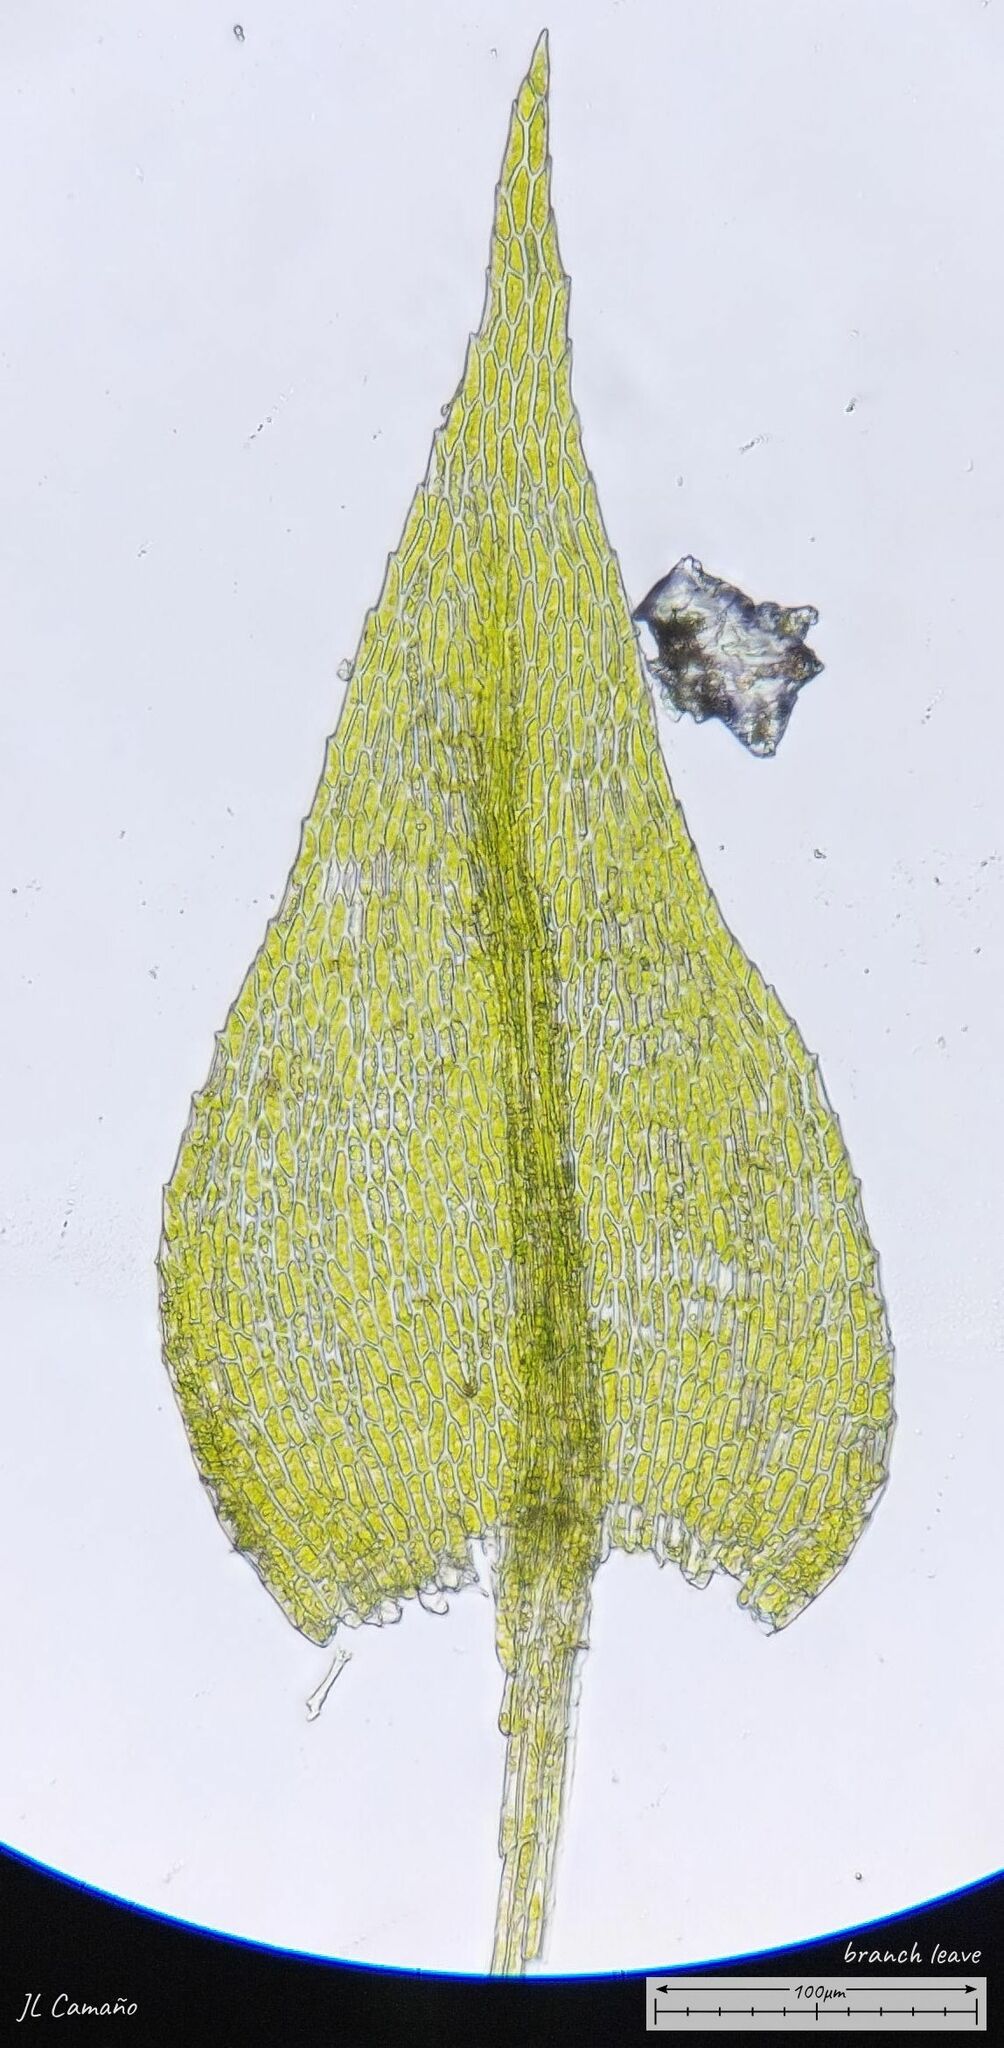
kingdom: Plantae
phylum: Bryophyta
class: Bryopsida
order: Hypnales
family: Amblystegiaceae
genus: Amblystegium
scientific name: Amblystegium serpens
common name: Jurkatzka's feather moss
